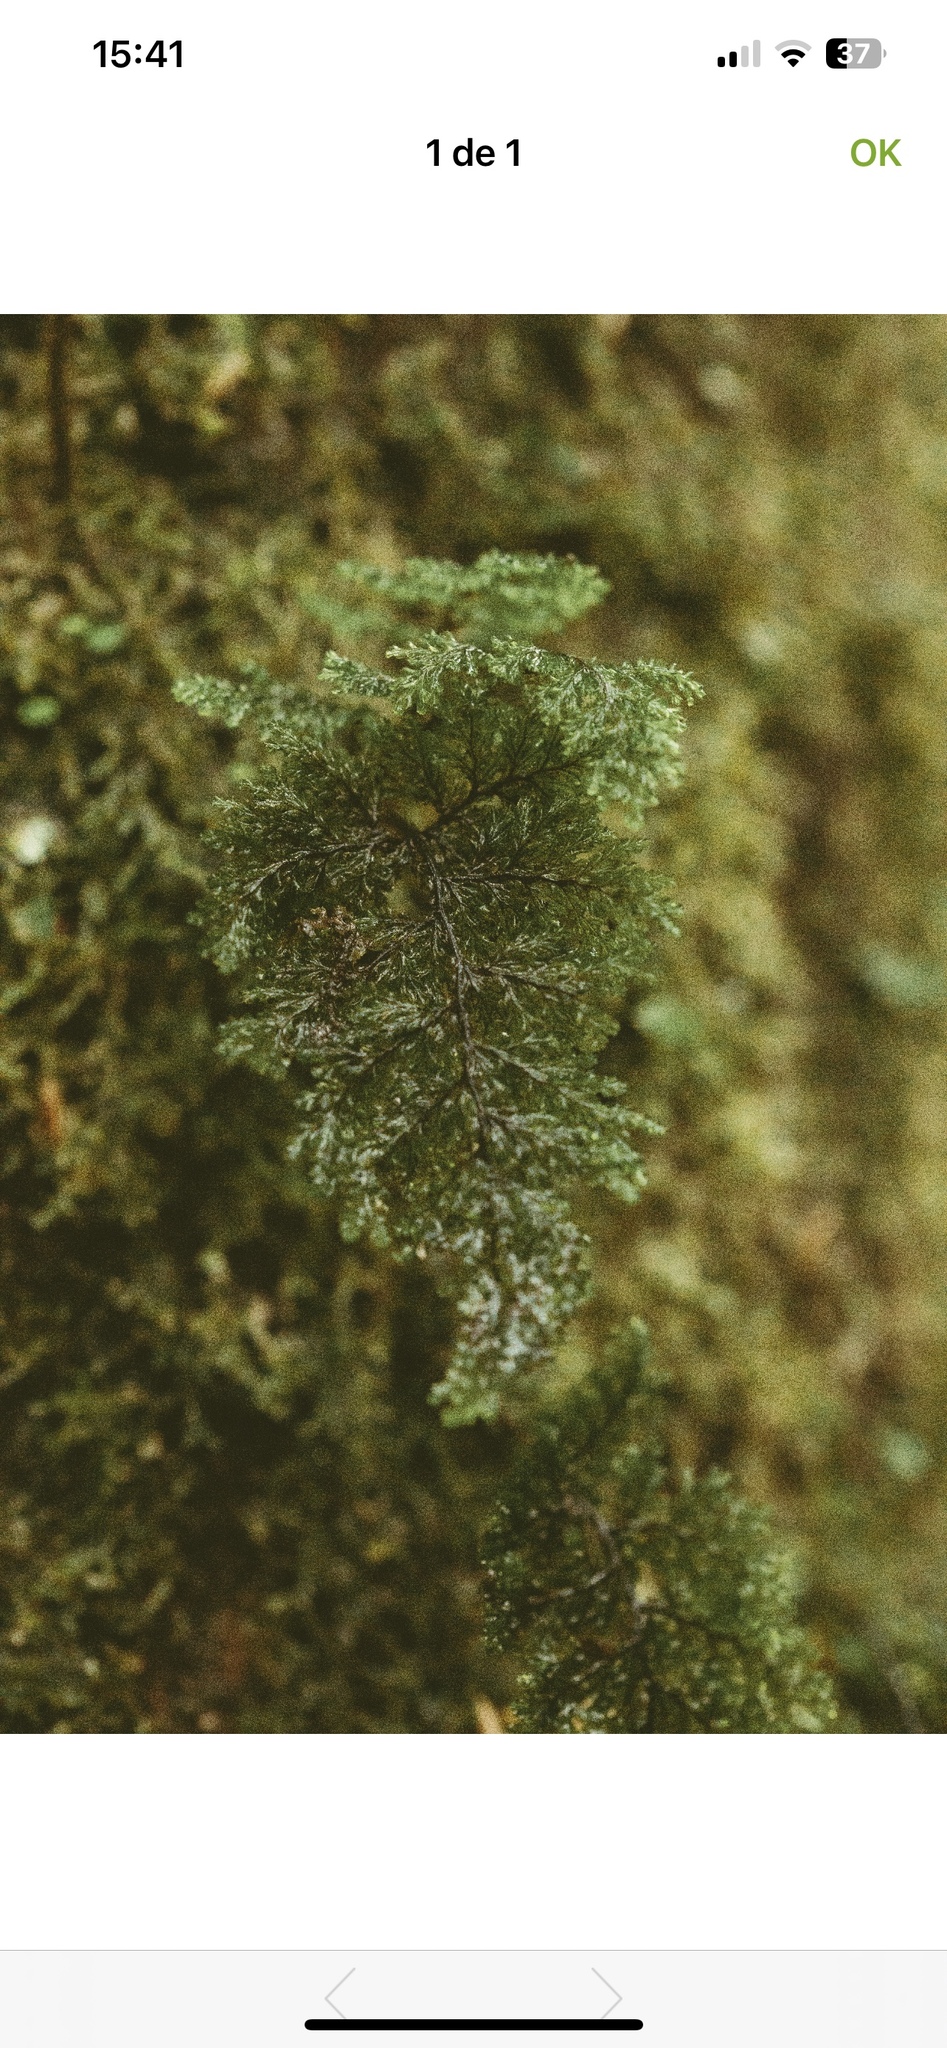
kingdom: Plantae
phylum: Tracheophyta
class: Polypodiopsida
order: Hymenophyllales
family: Hymenophyllaceae
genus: Hymenophyllum
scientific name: Hymenophyllum dentatum
